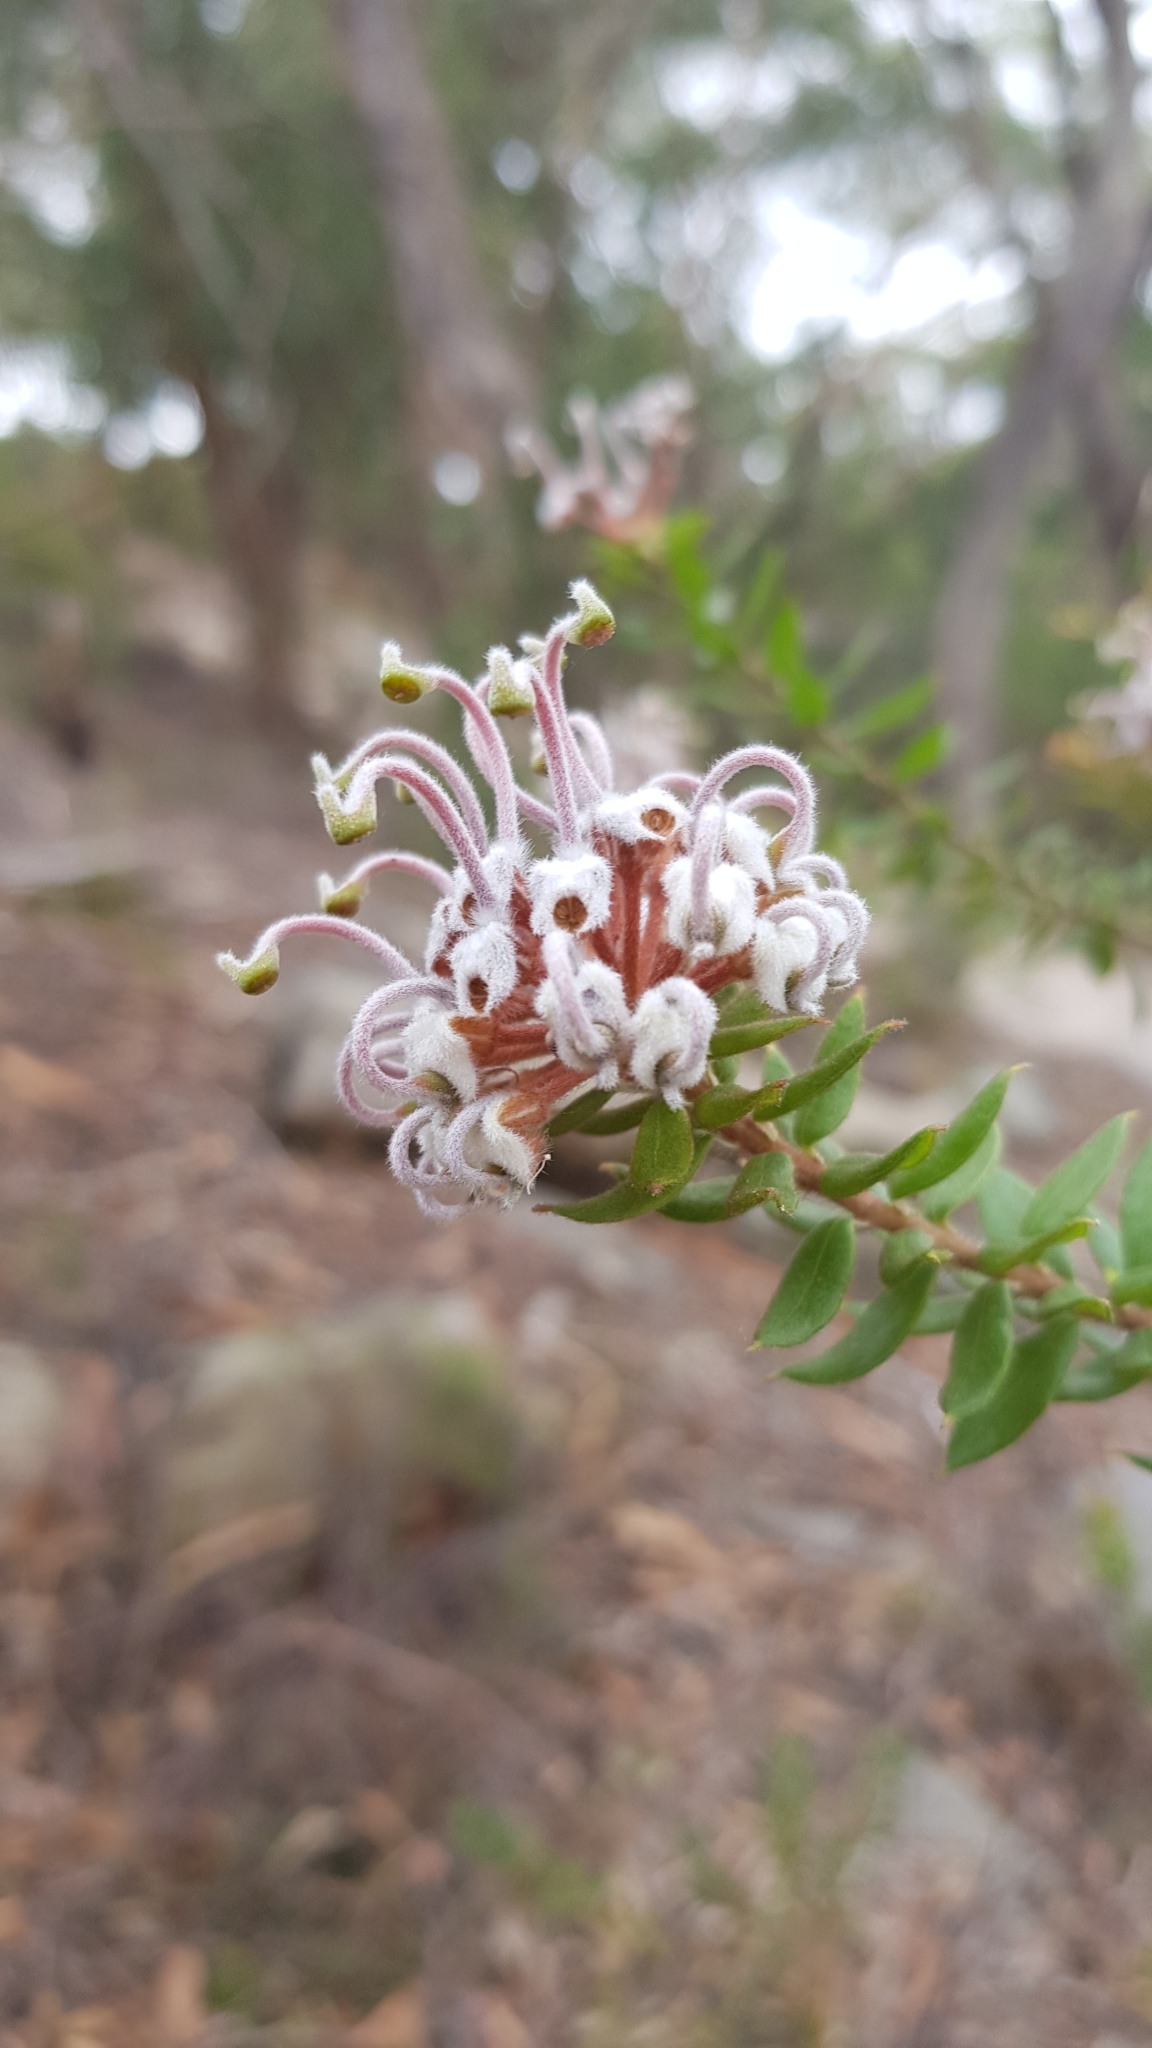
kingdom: Plantae
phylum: Tracheophyta
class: Magnoliopsida
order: Proteales
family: Proteaceae
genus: Grevillea
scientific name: Grevillea buxifolia
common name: Grey spiderflower
